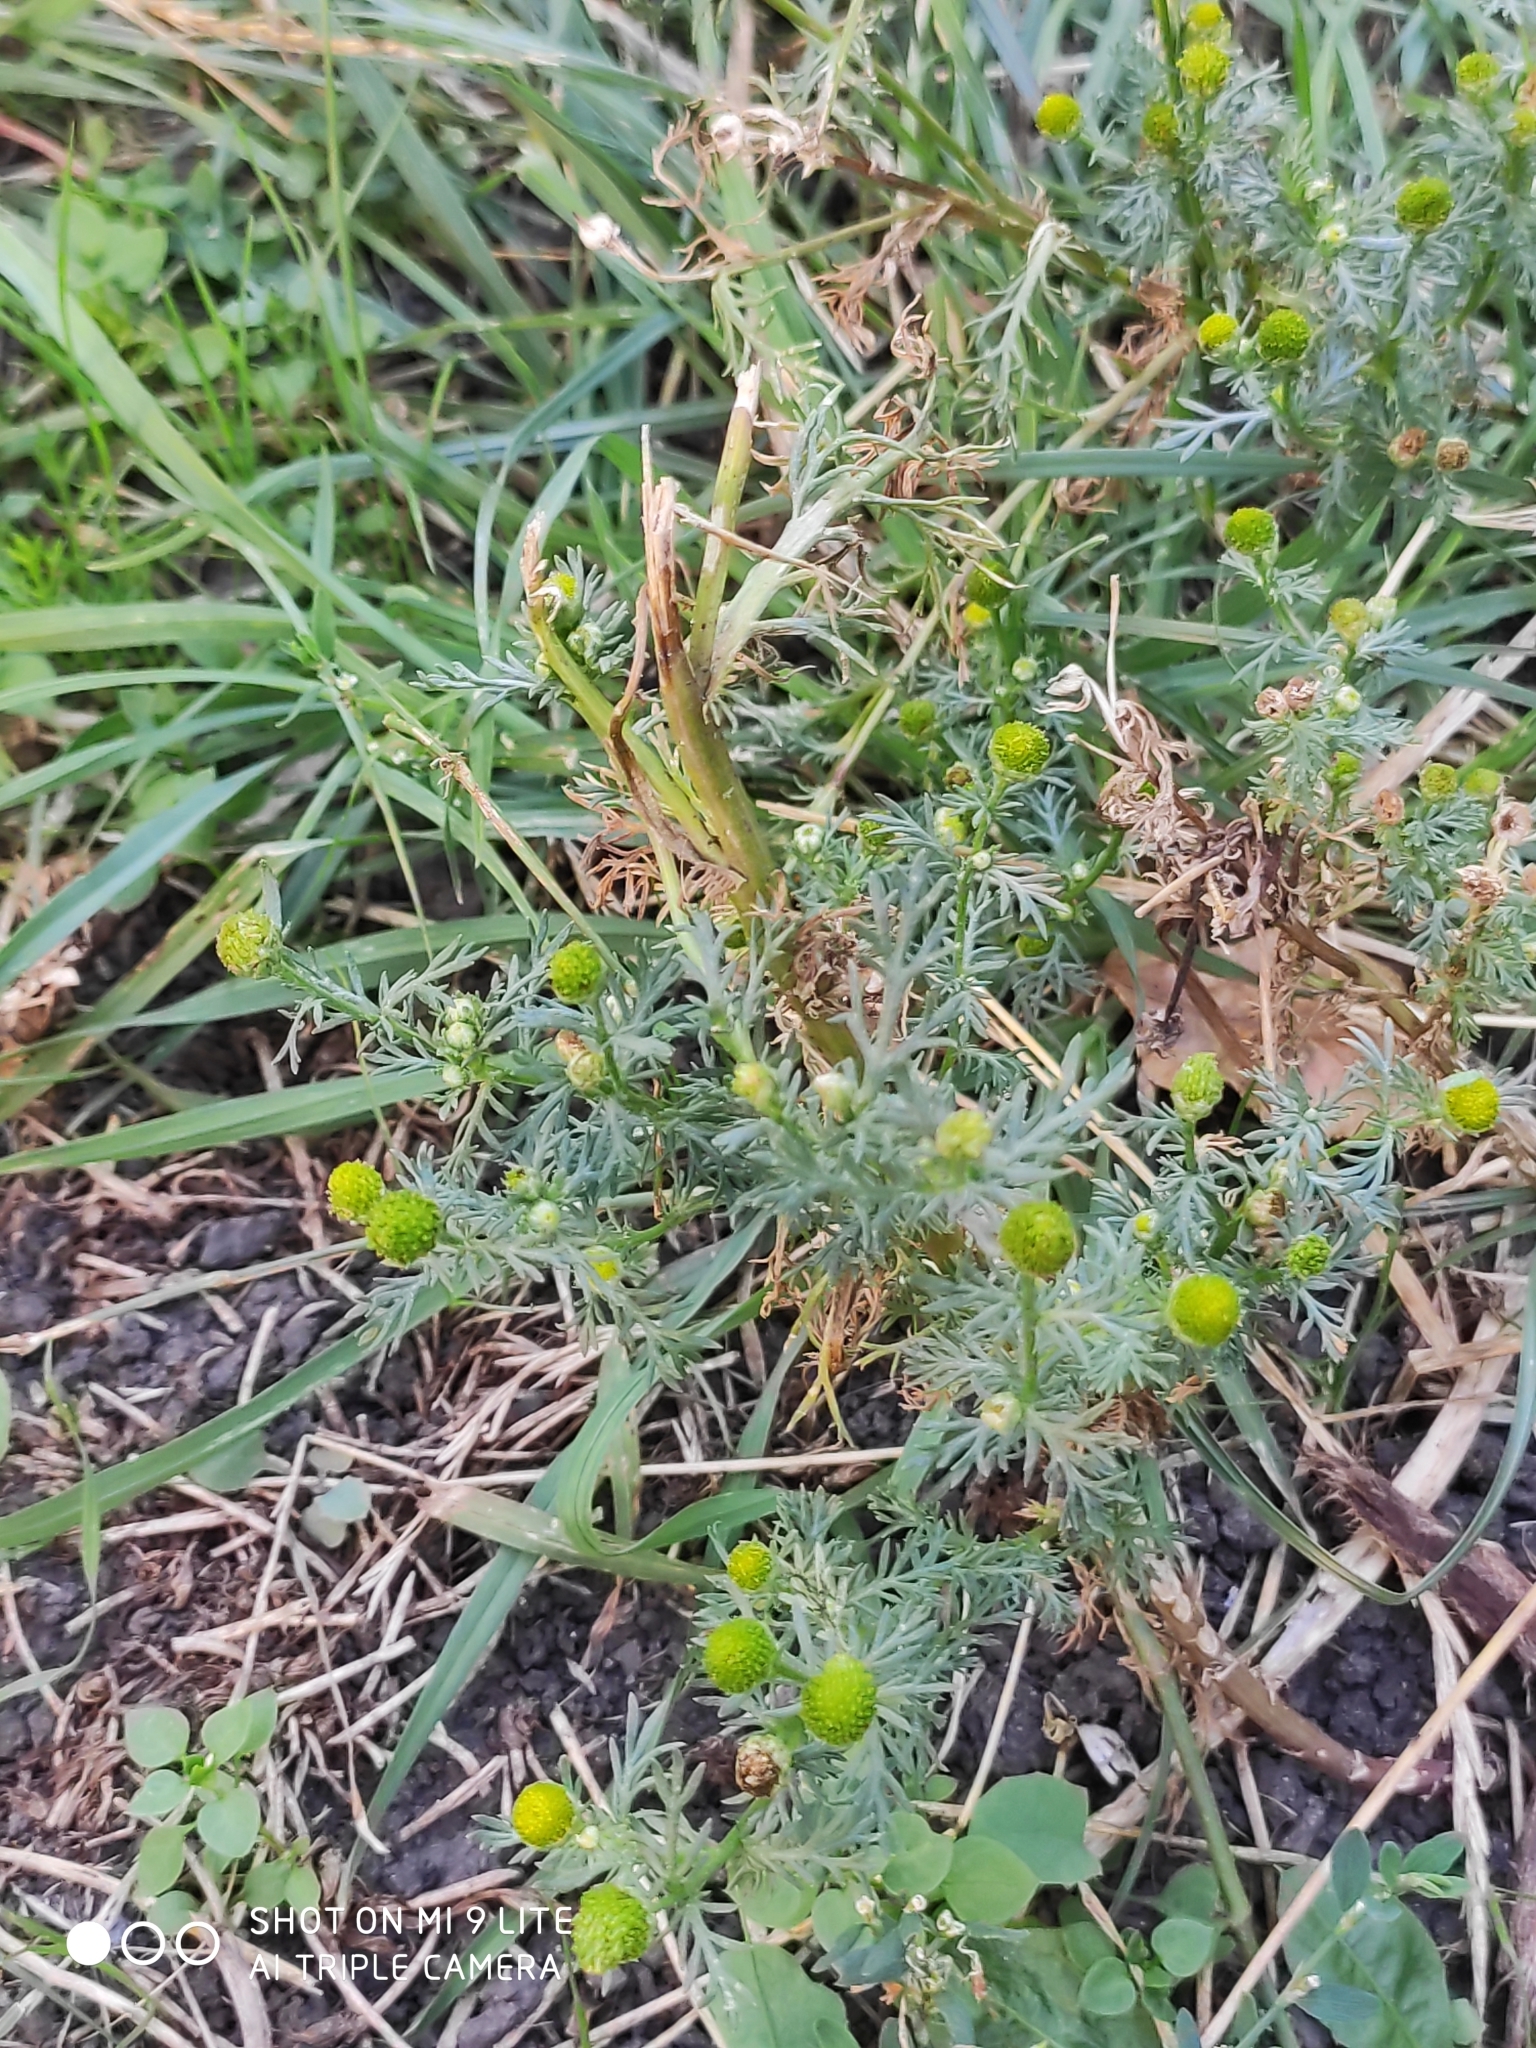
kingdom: Plantae
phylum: Tracheophyta
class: Magnoliopsida
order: Asterales
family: Asteraceae
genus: Matricaria
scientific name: Matricaria discoidea
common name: Disc mayweed
